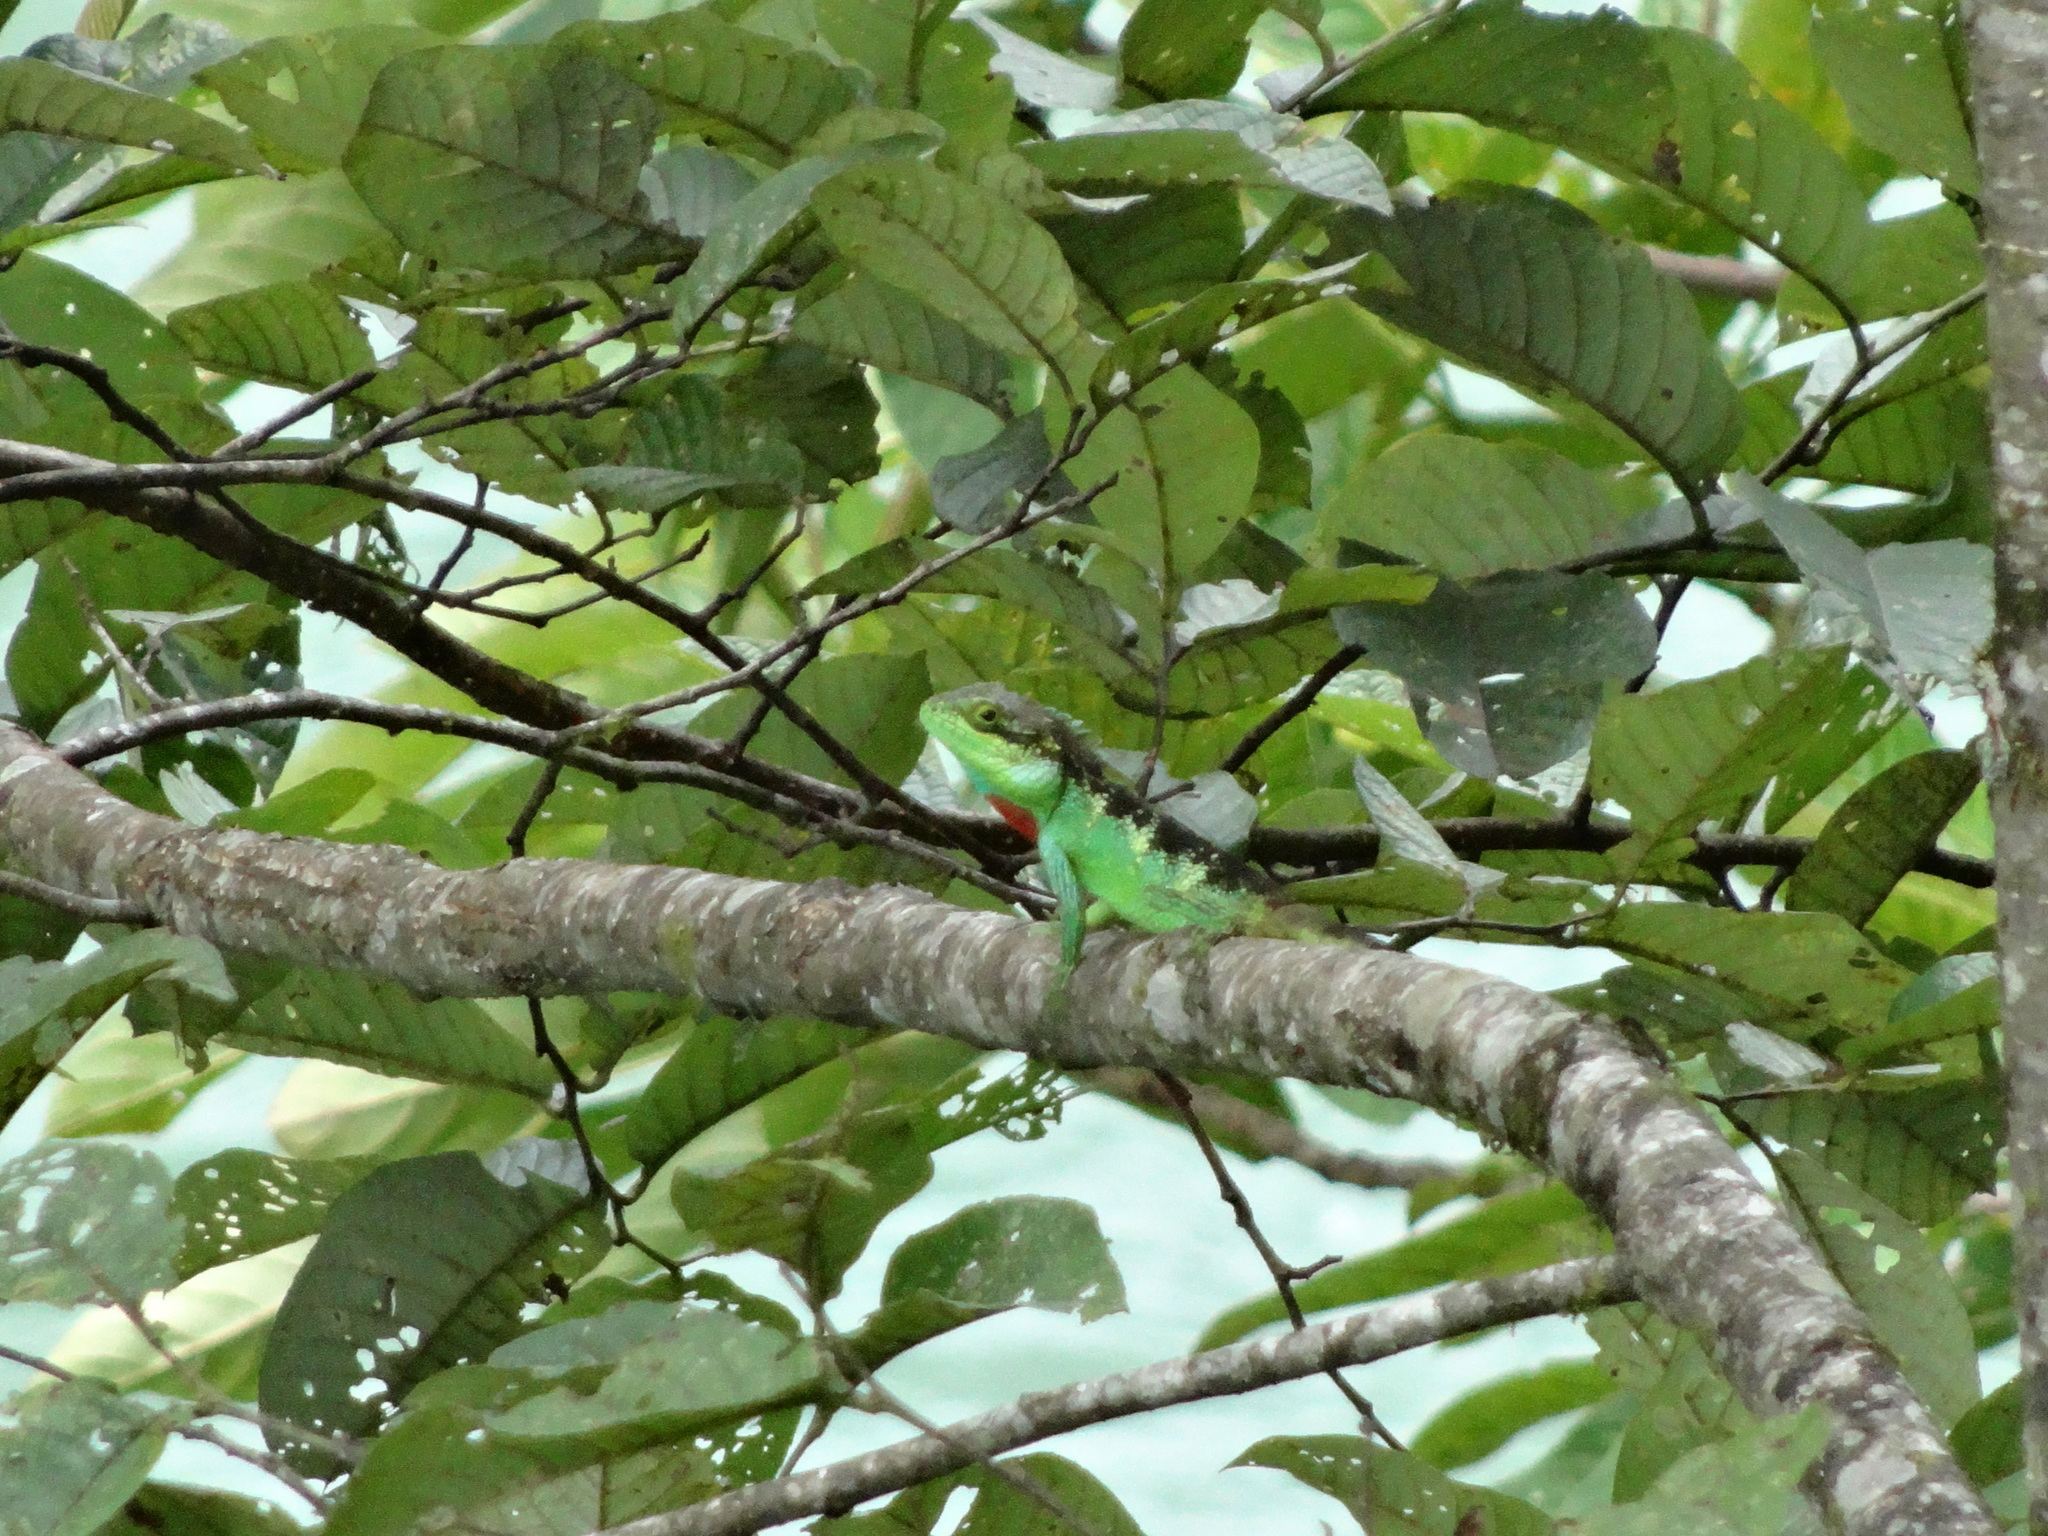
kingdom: Animalia
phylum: Chordata
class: Squamata
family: Agamidae
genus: Pseudocalotes
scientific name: Pseudocalotes bapoensis
